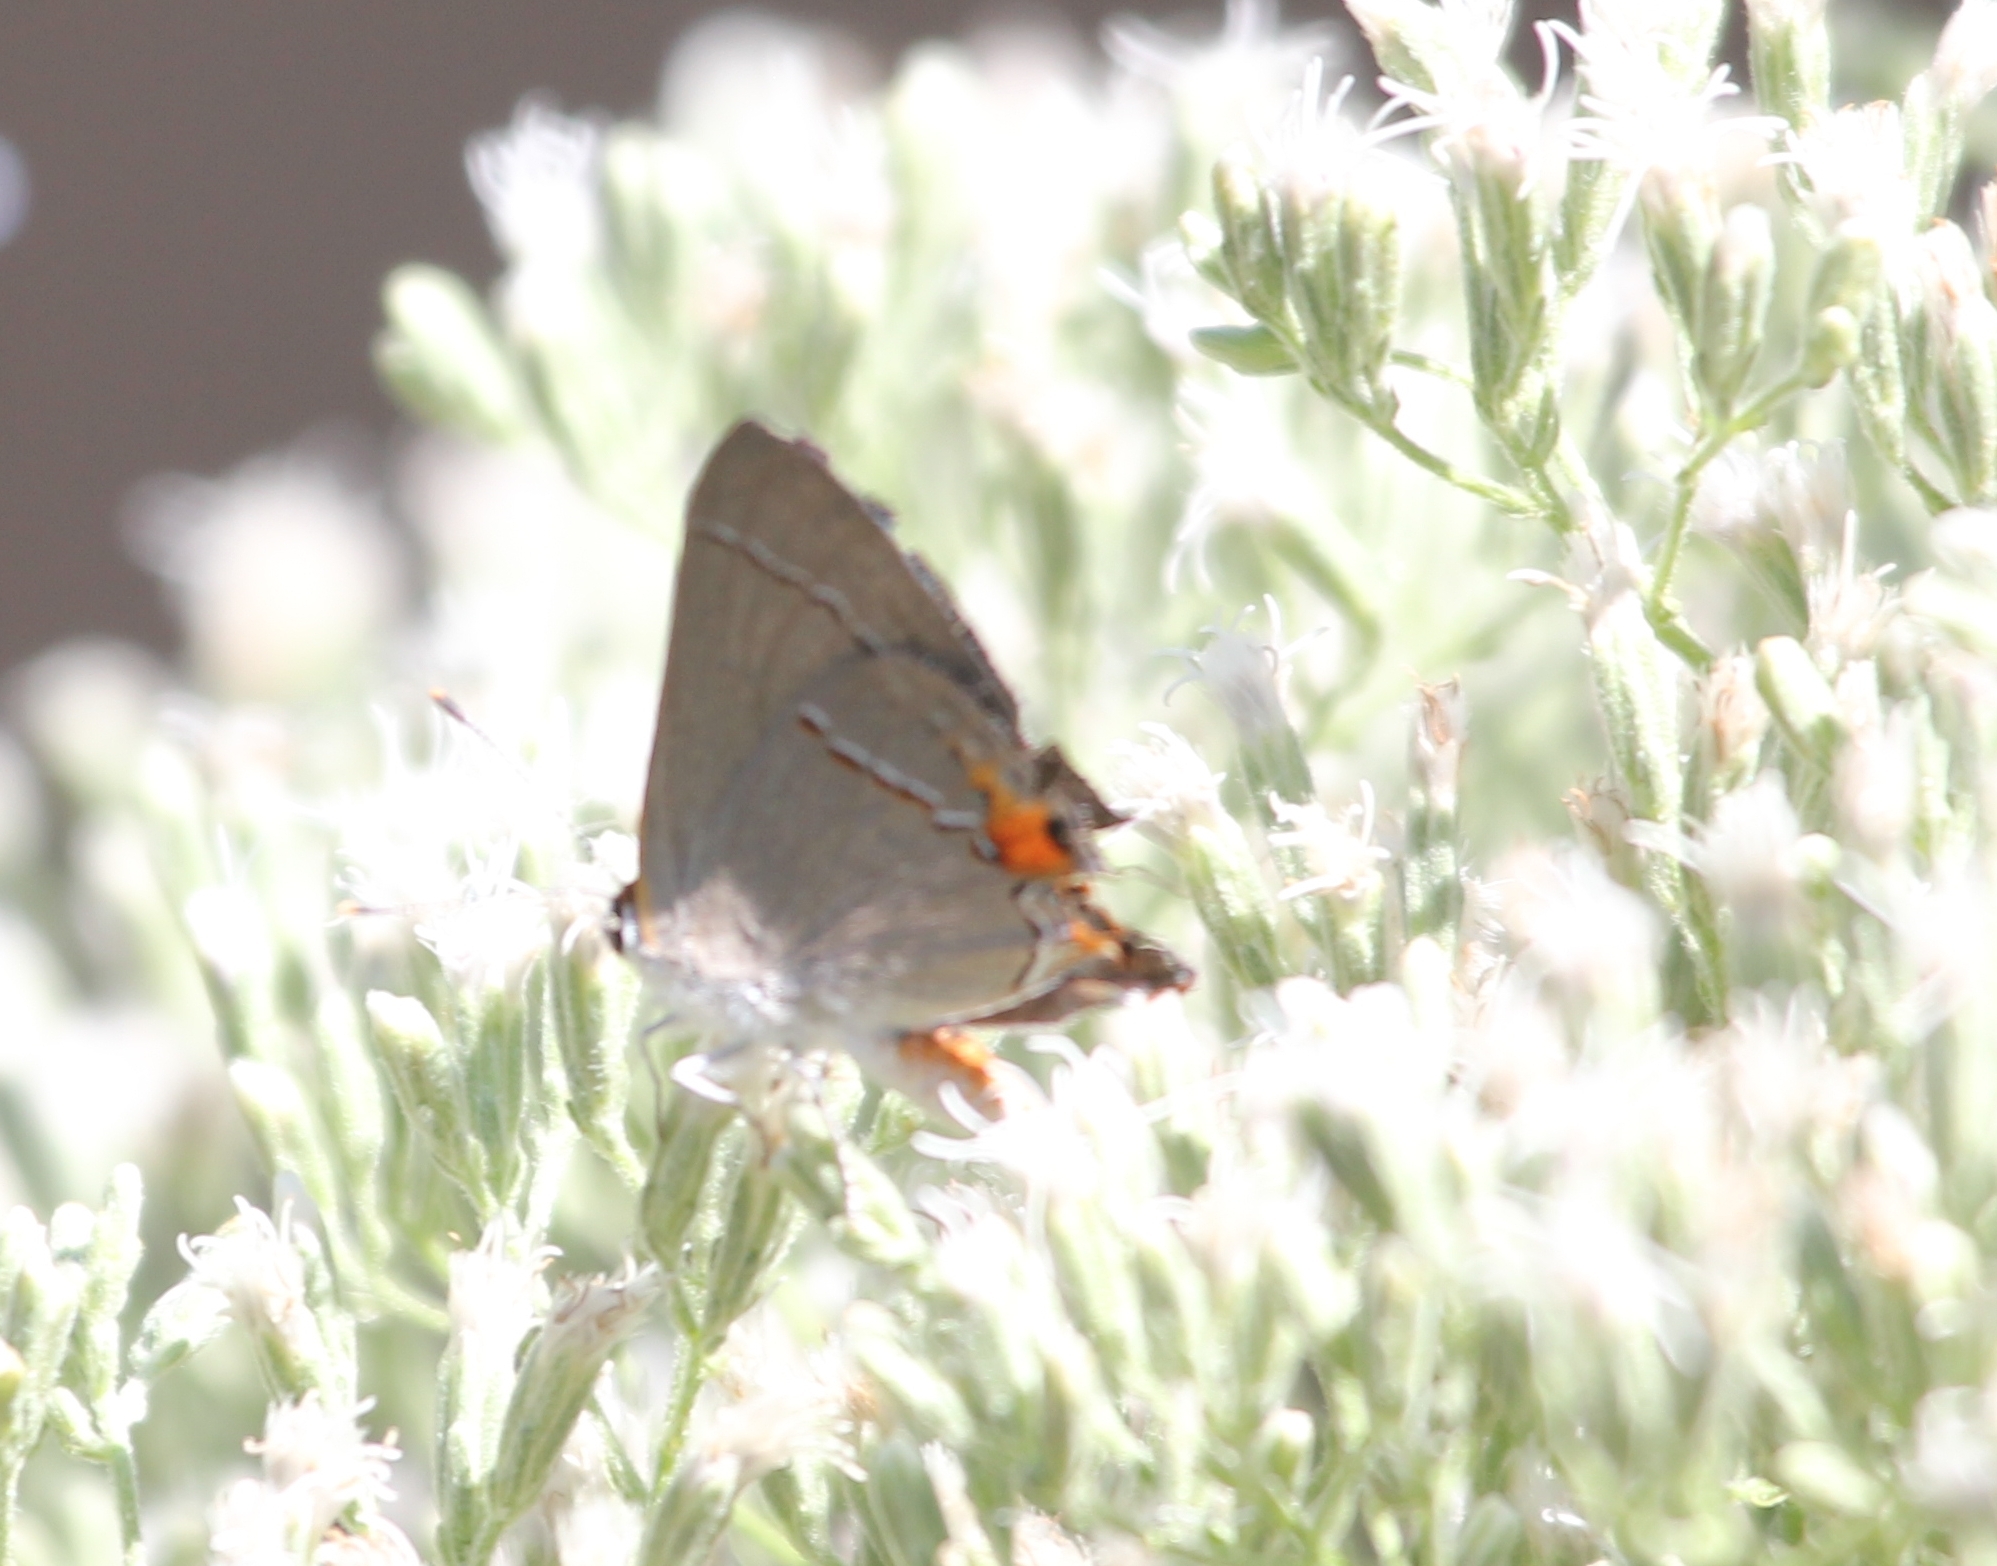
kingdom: Animalia
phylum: Arthropoda
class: Insecta
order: Lepidoptera
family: Lycaenidae
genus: Strymon
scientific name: Strymon melinus
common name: Gray hairstreak
